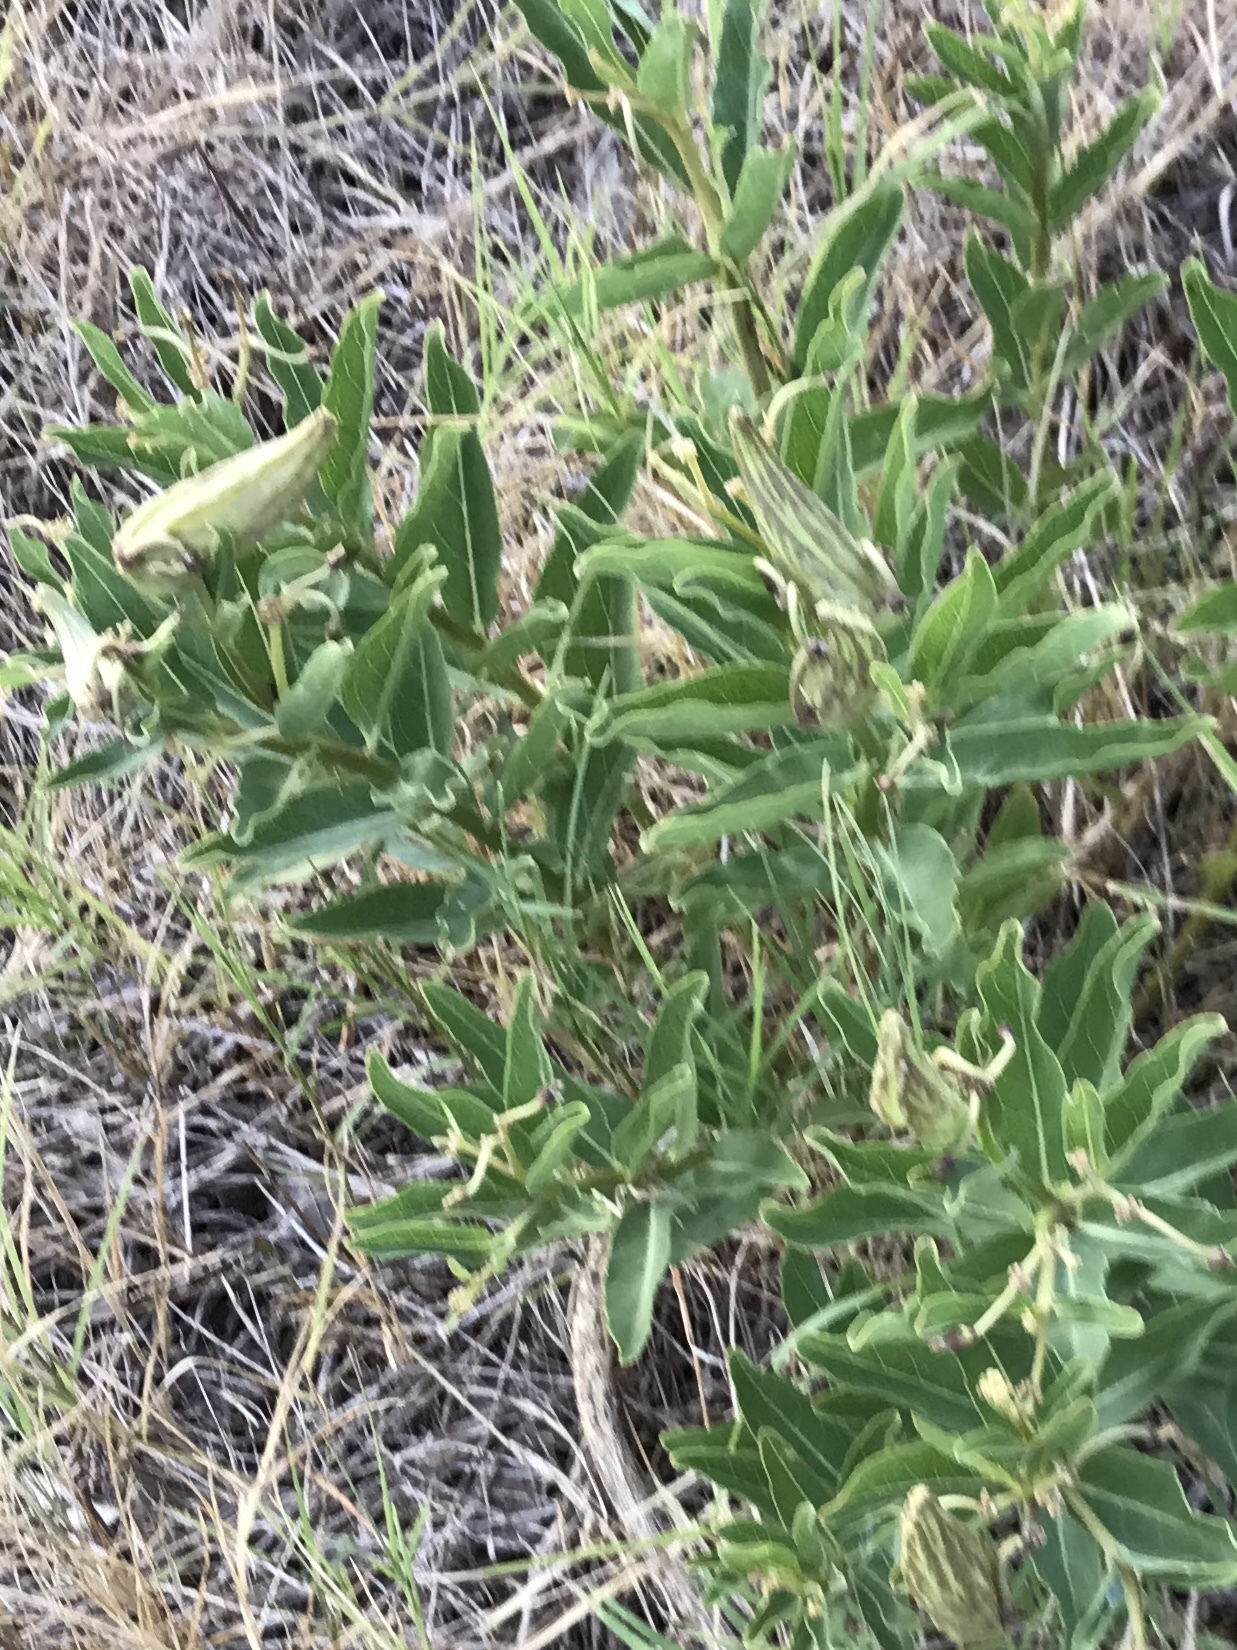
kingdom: Plantae
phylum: Tracheophyta
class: Magnoliopsida
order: Gentianales
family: Apocynaceae
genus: Asclepias
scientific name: Asclepias viridis
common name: Antelope-horns
